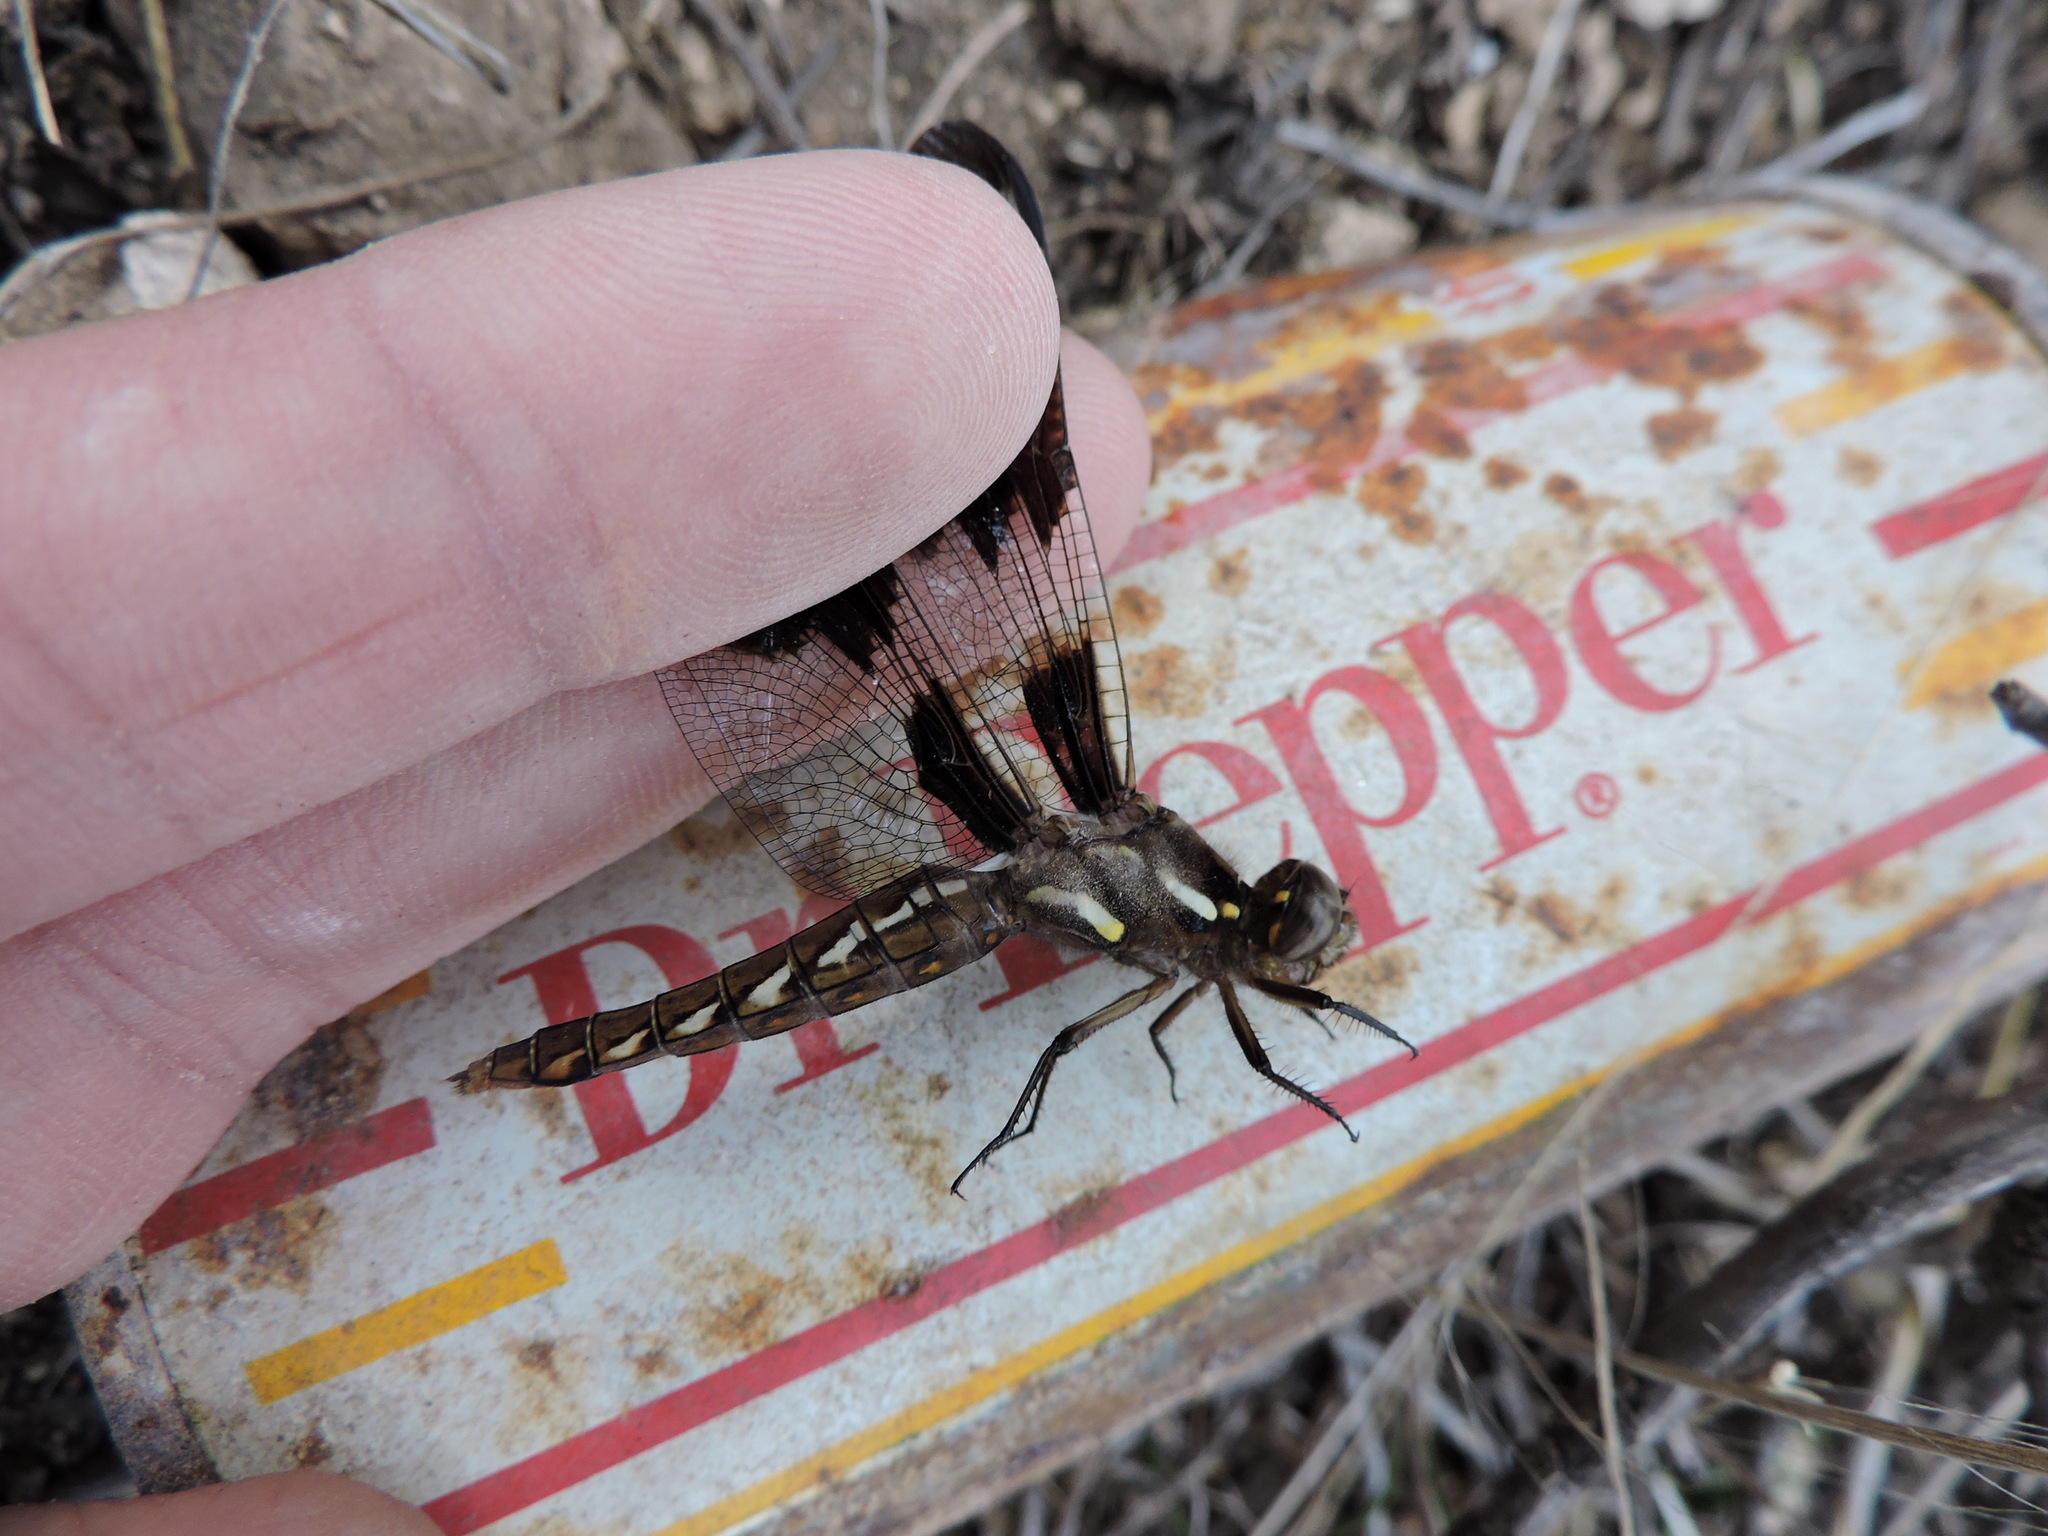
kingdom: Animalia
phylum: Arthropoda
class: Insecta
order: Odonata
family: Libellulidae
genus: Plathemis
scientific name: Plathemis lydia
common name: Common whitetail
